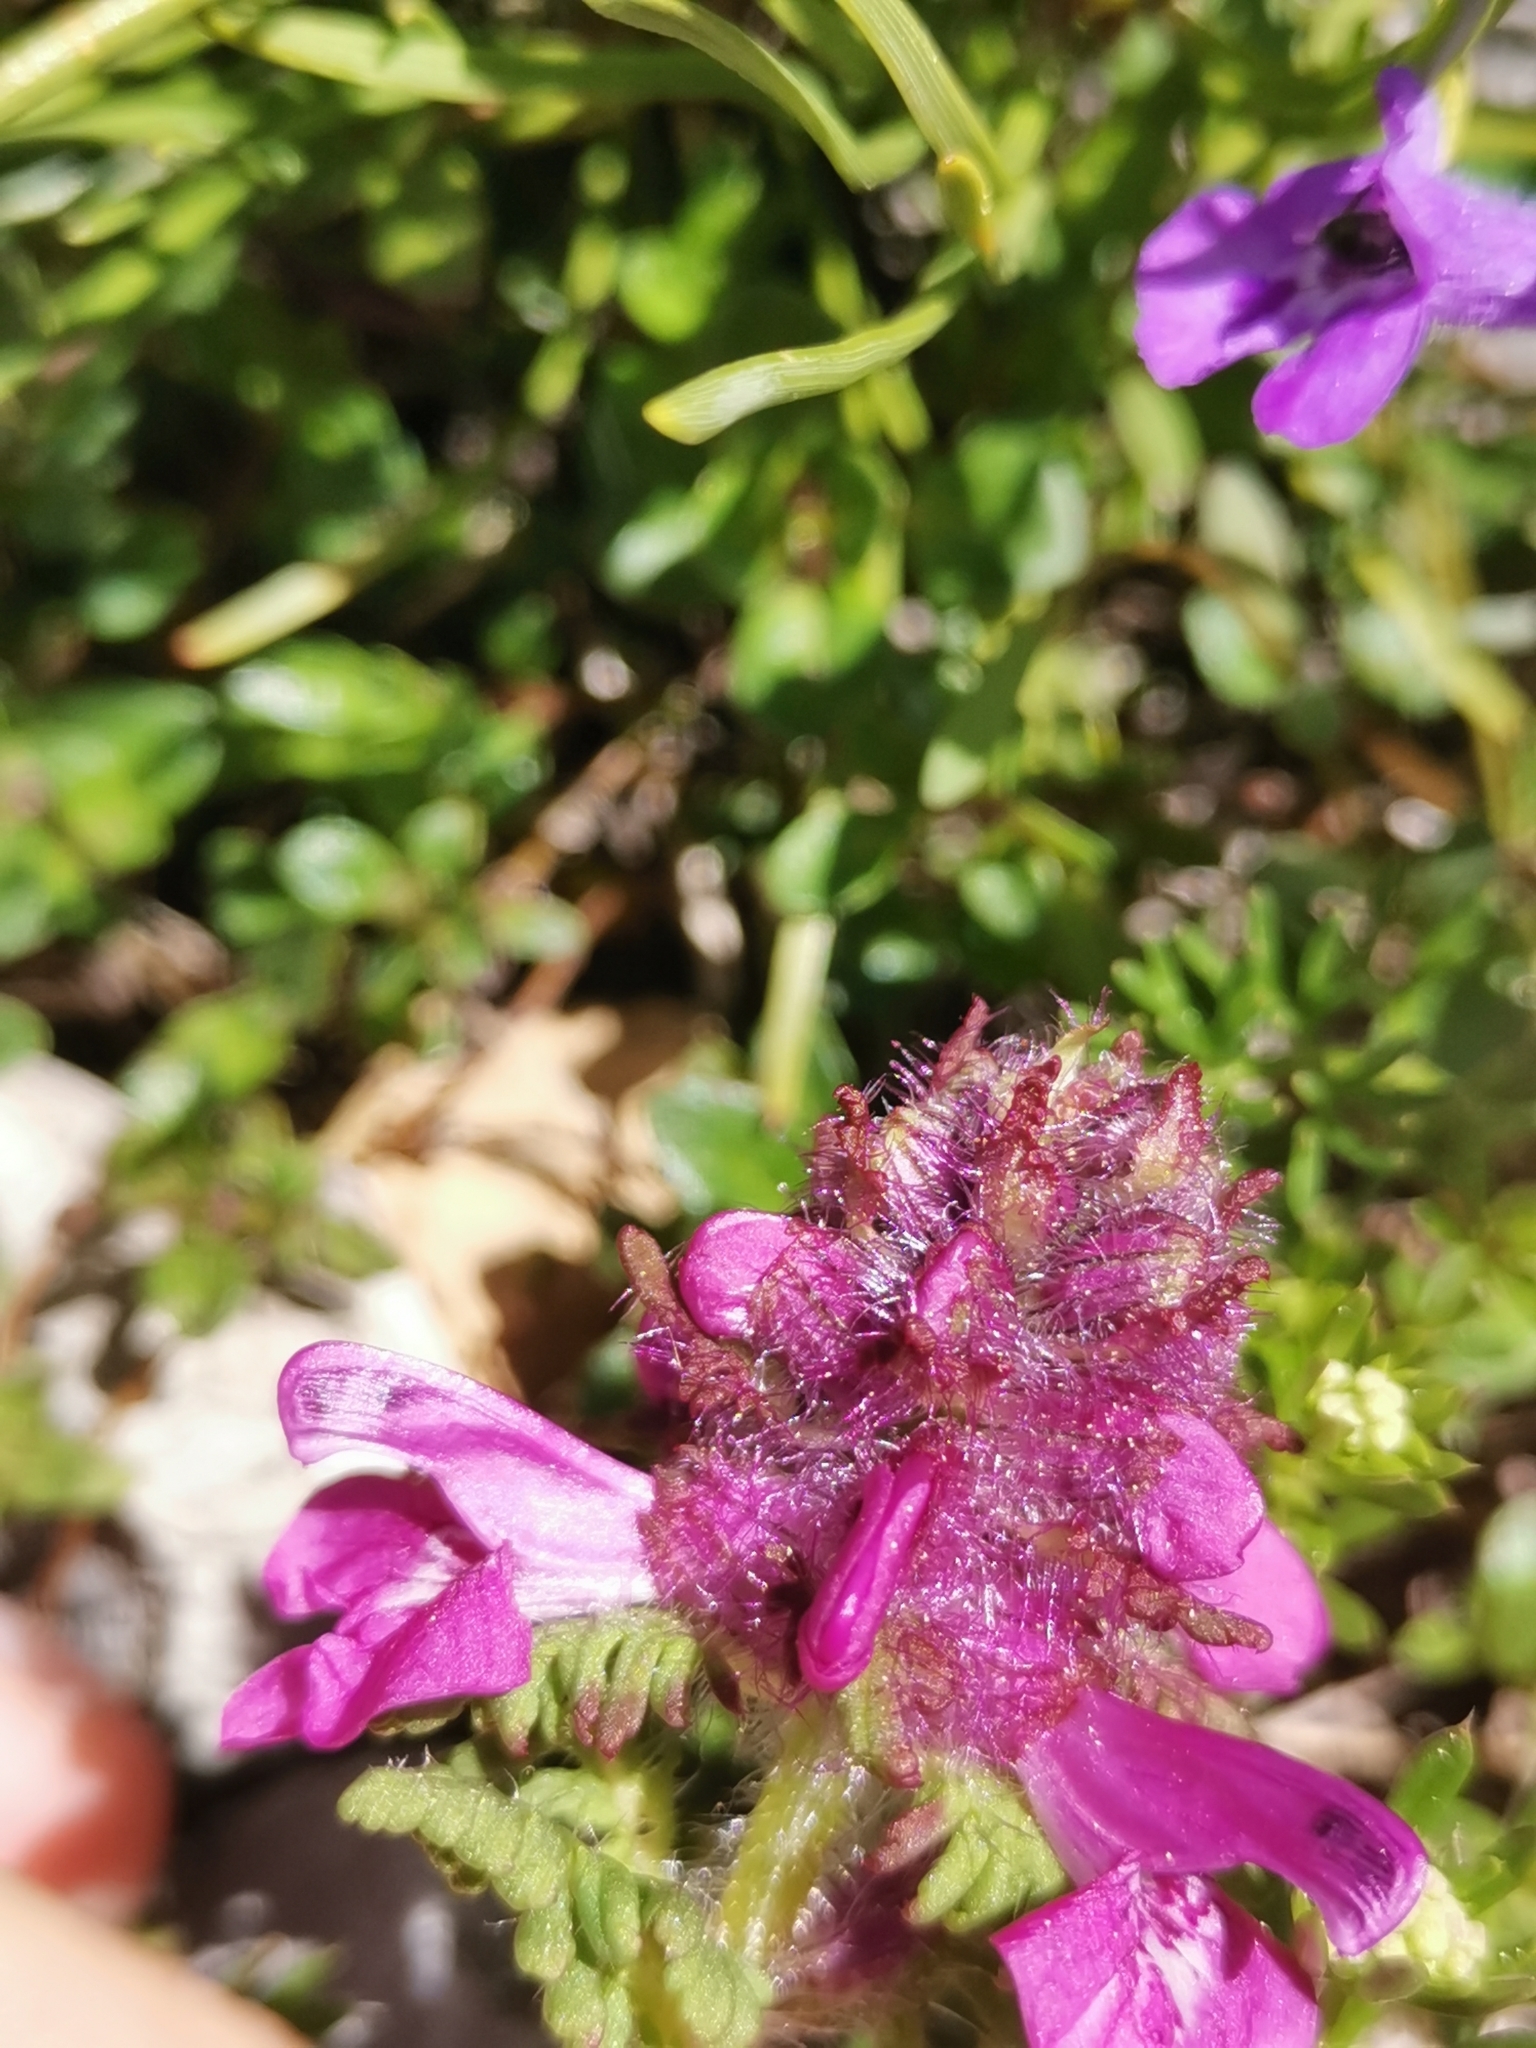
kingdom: Plantae
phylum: Tracheophyta
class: Magnoliopsida
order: Lamiales
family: Orobanchaceae
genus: Pedicularis
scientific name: Pedicularis verticillata
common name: Whorled lousewort
